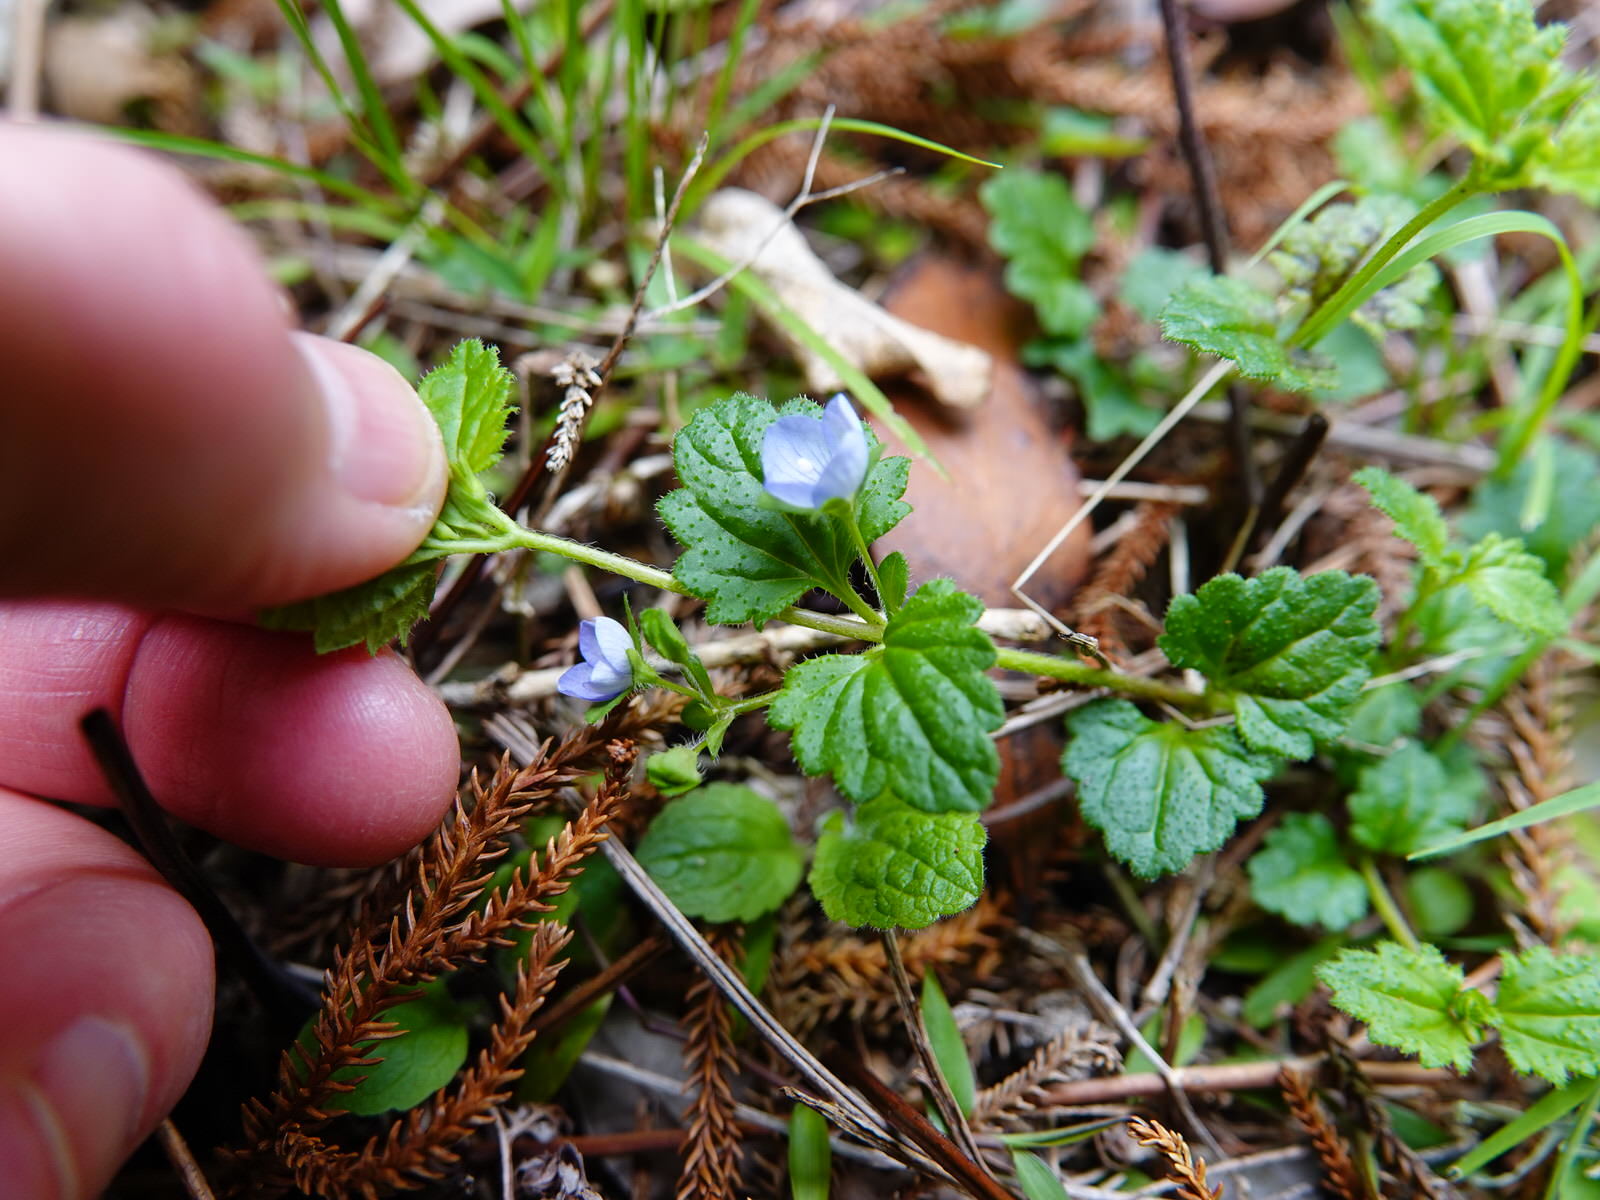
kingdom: Plantae
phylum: Tracheophyta
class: Magnoliopsida
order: Lamiales
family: Plantaginaceae
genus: Veronica
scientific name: Veronica calycina
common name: Cup speedwell
